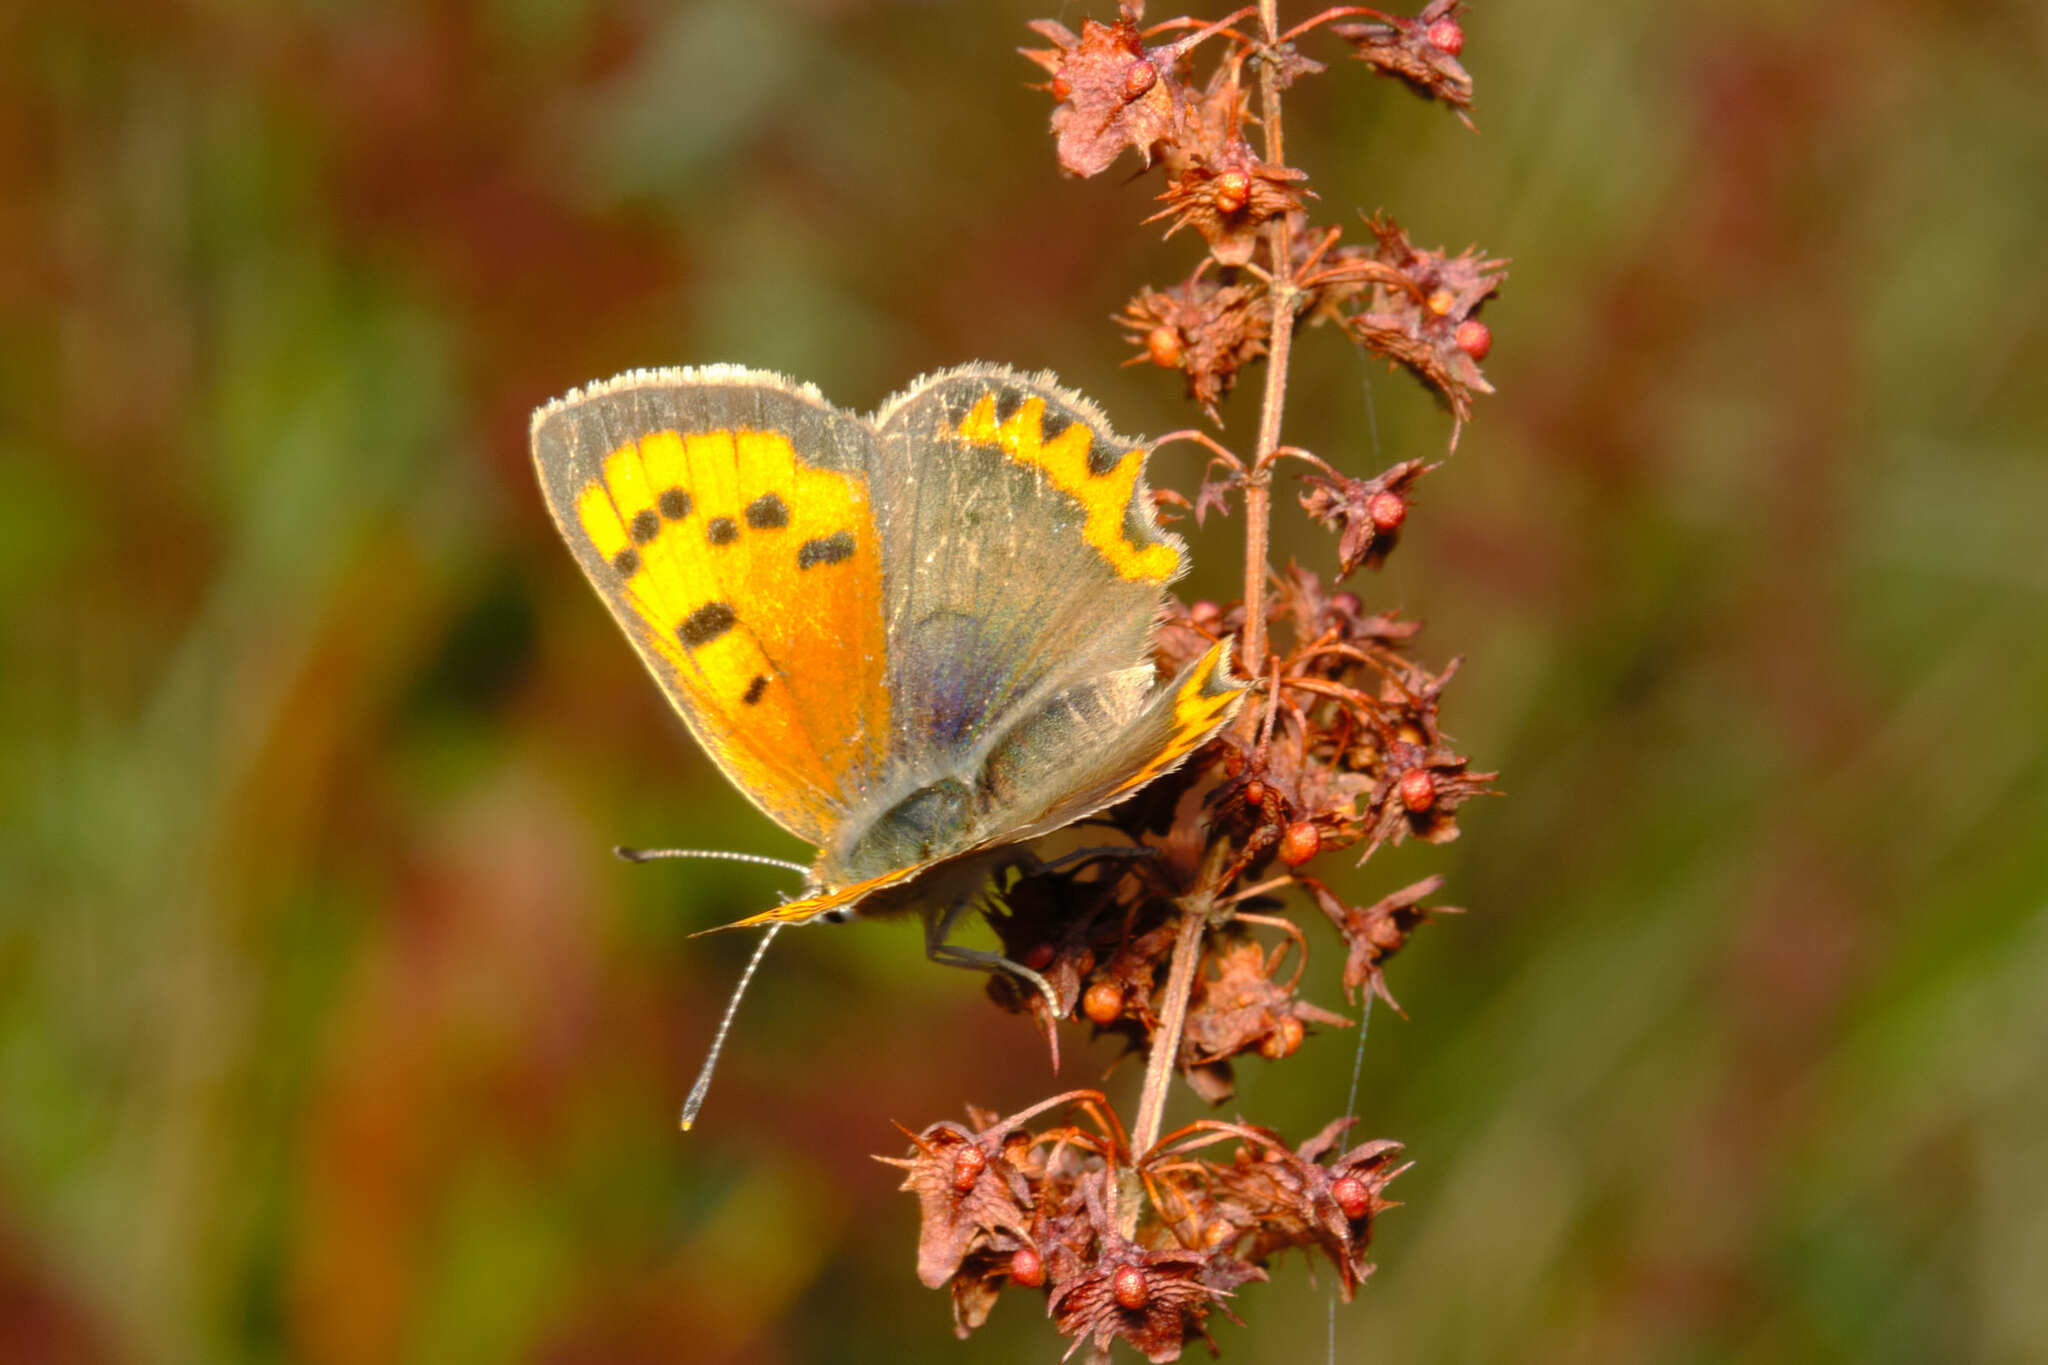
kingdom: Animalia
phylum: Arthropoda
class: Insecta
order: Lepidoptera
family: Lycaenidae
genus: Lycaena
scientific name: Lycaena phlaeas
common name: Small copper
